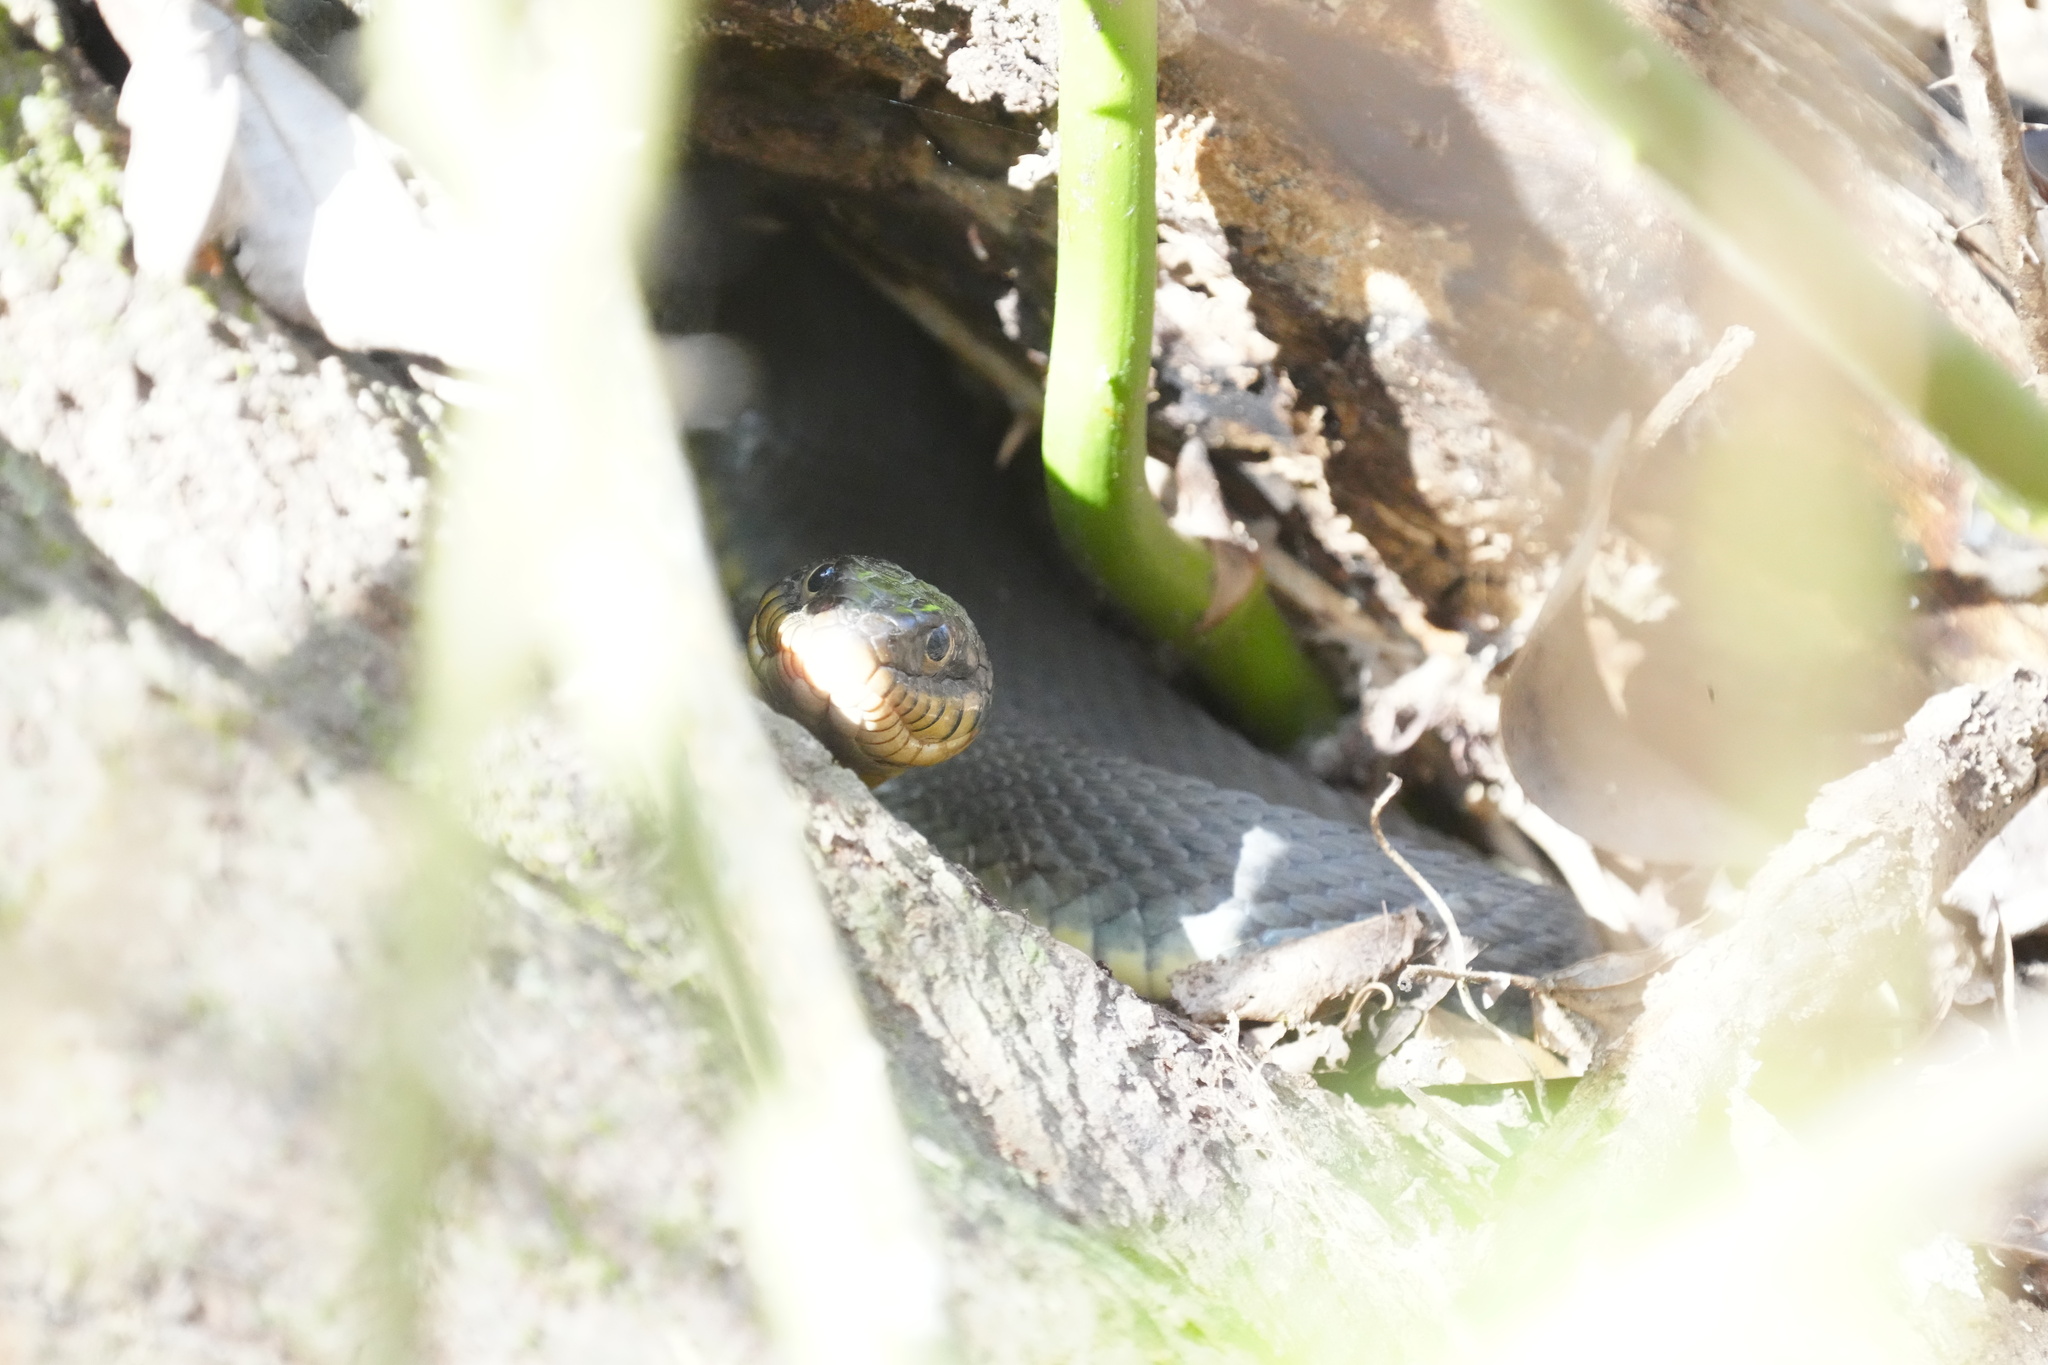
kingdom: Animalia
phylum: Chordata
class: Squamata
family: Colubridae
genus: Nerodia
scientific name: Nerodia erythrogaster
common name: Plainbelly water snake
